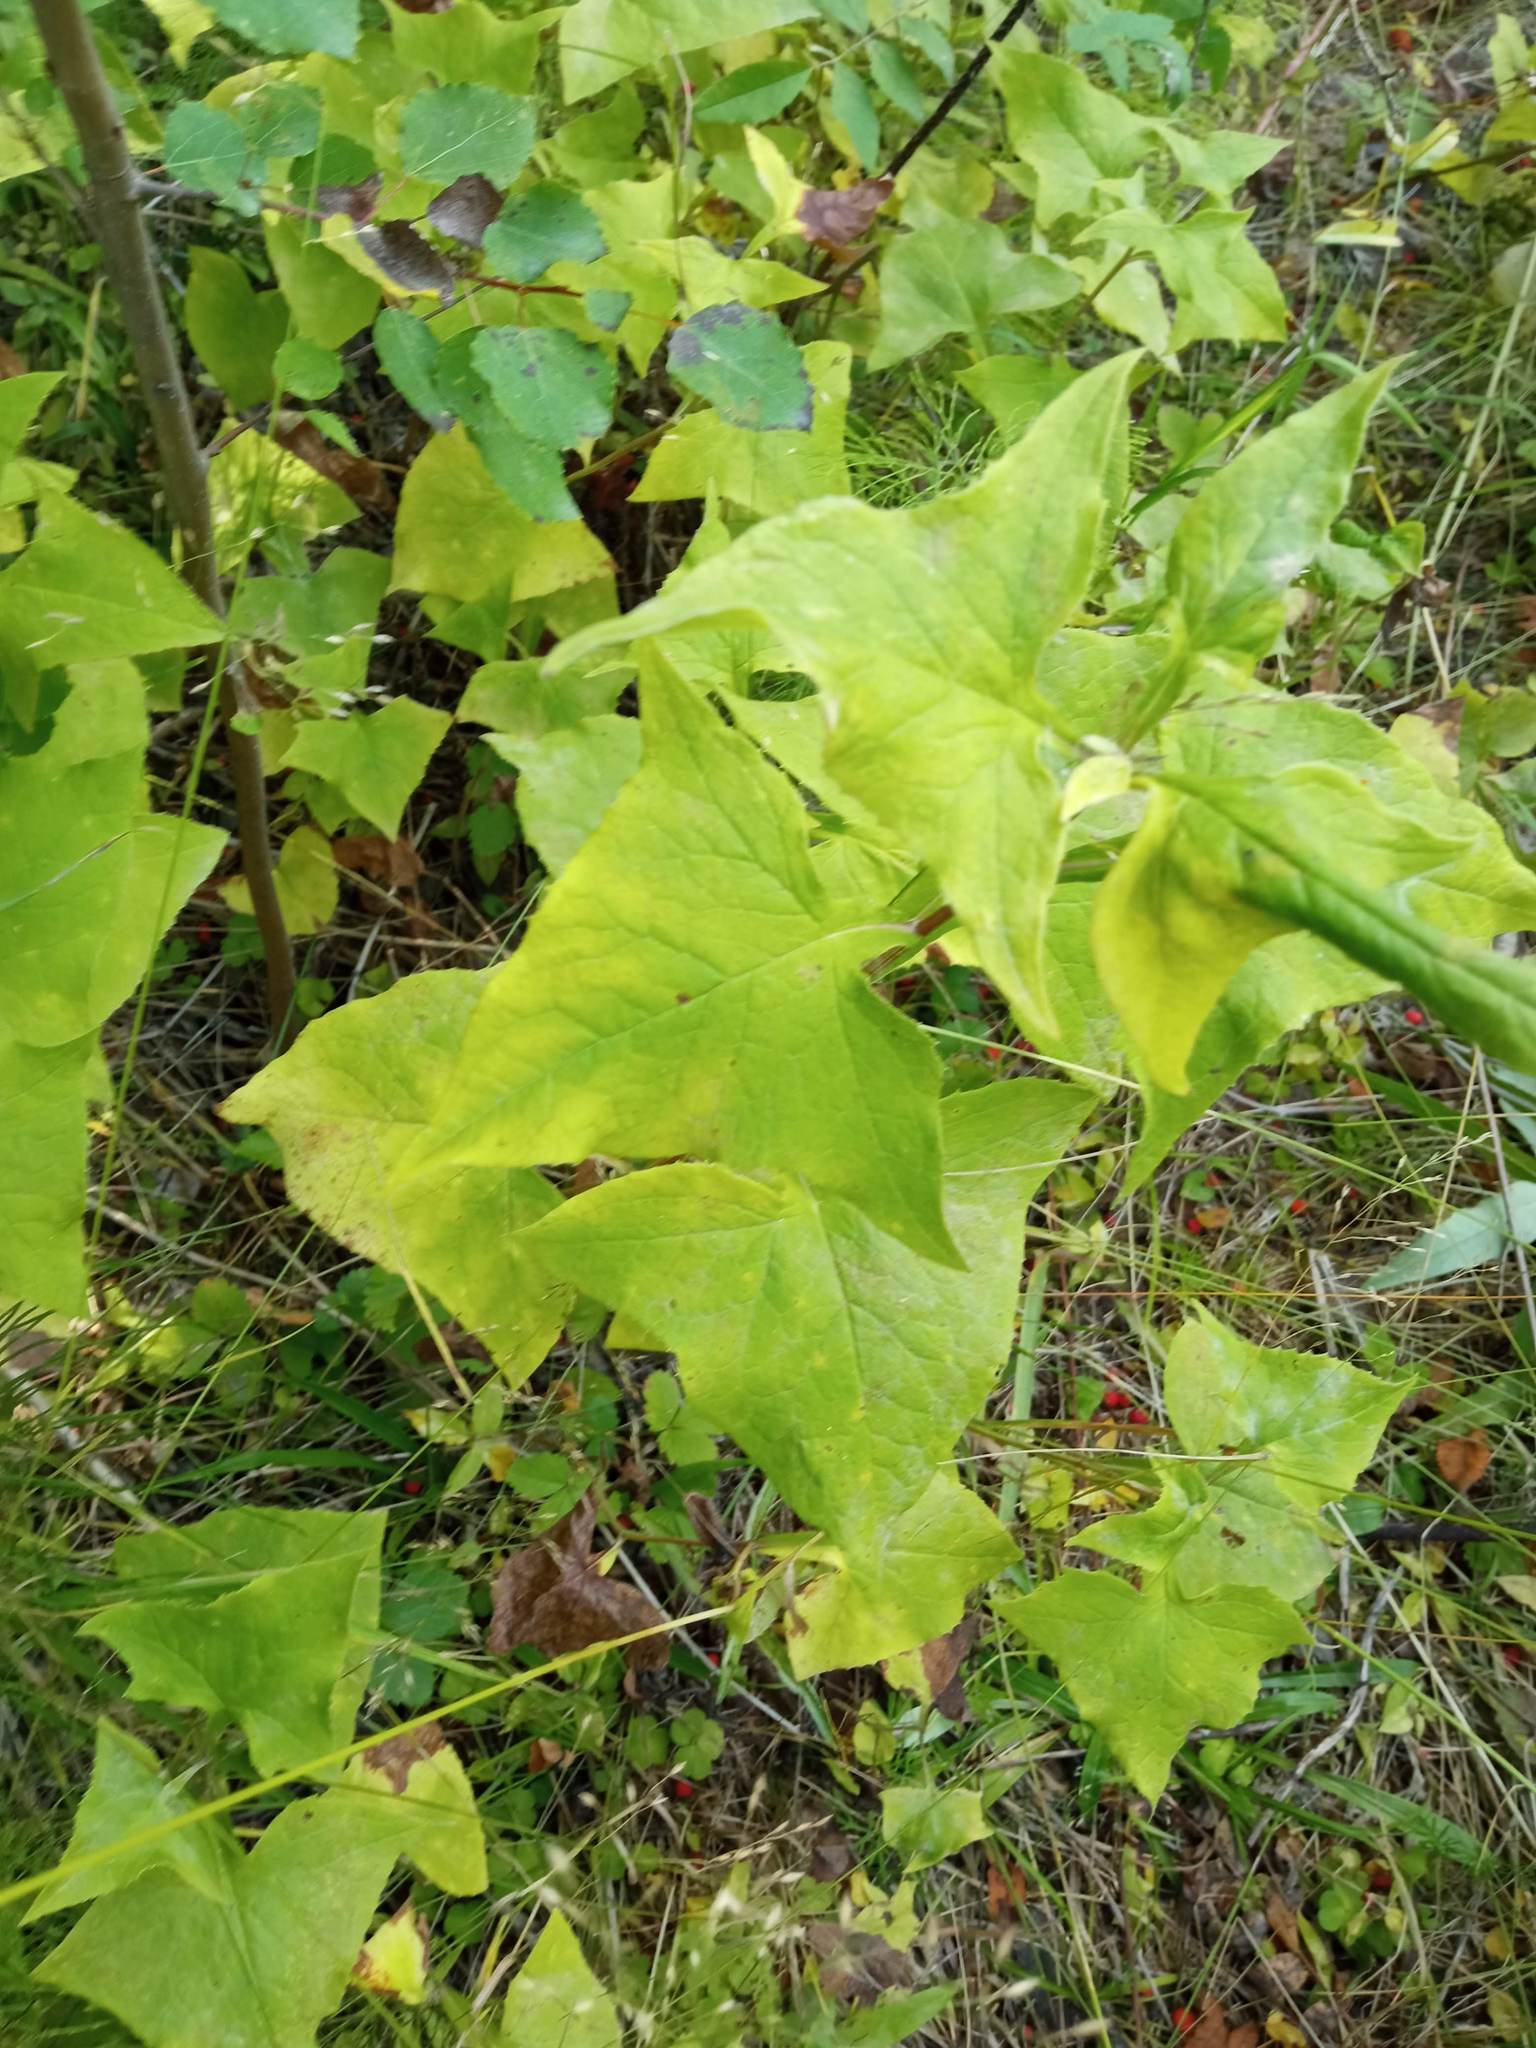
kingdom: Plantae
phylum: Tracheophyta
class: Magnoliopsida
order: Asterales
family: Asteraceae
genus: Parasenecio
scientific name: Parasenecio hastatus
